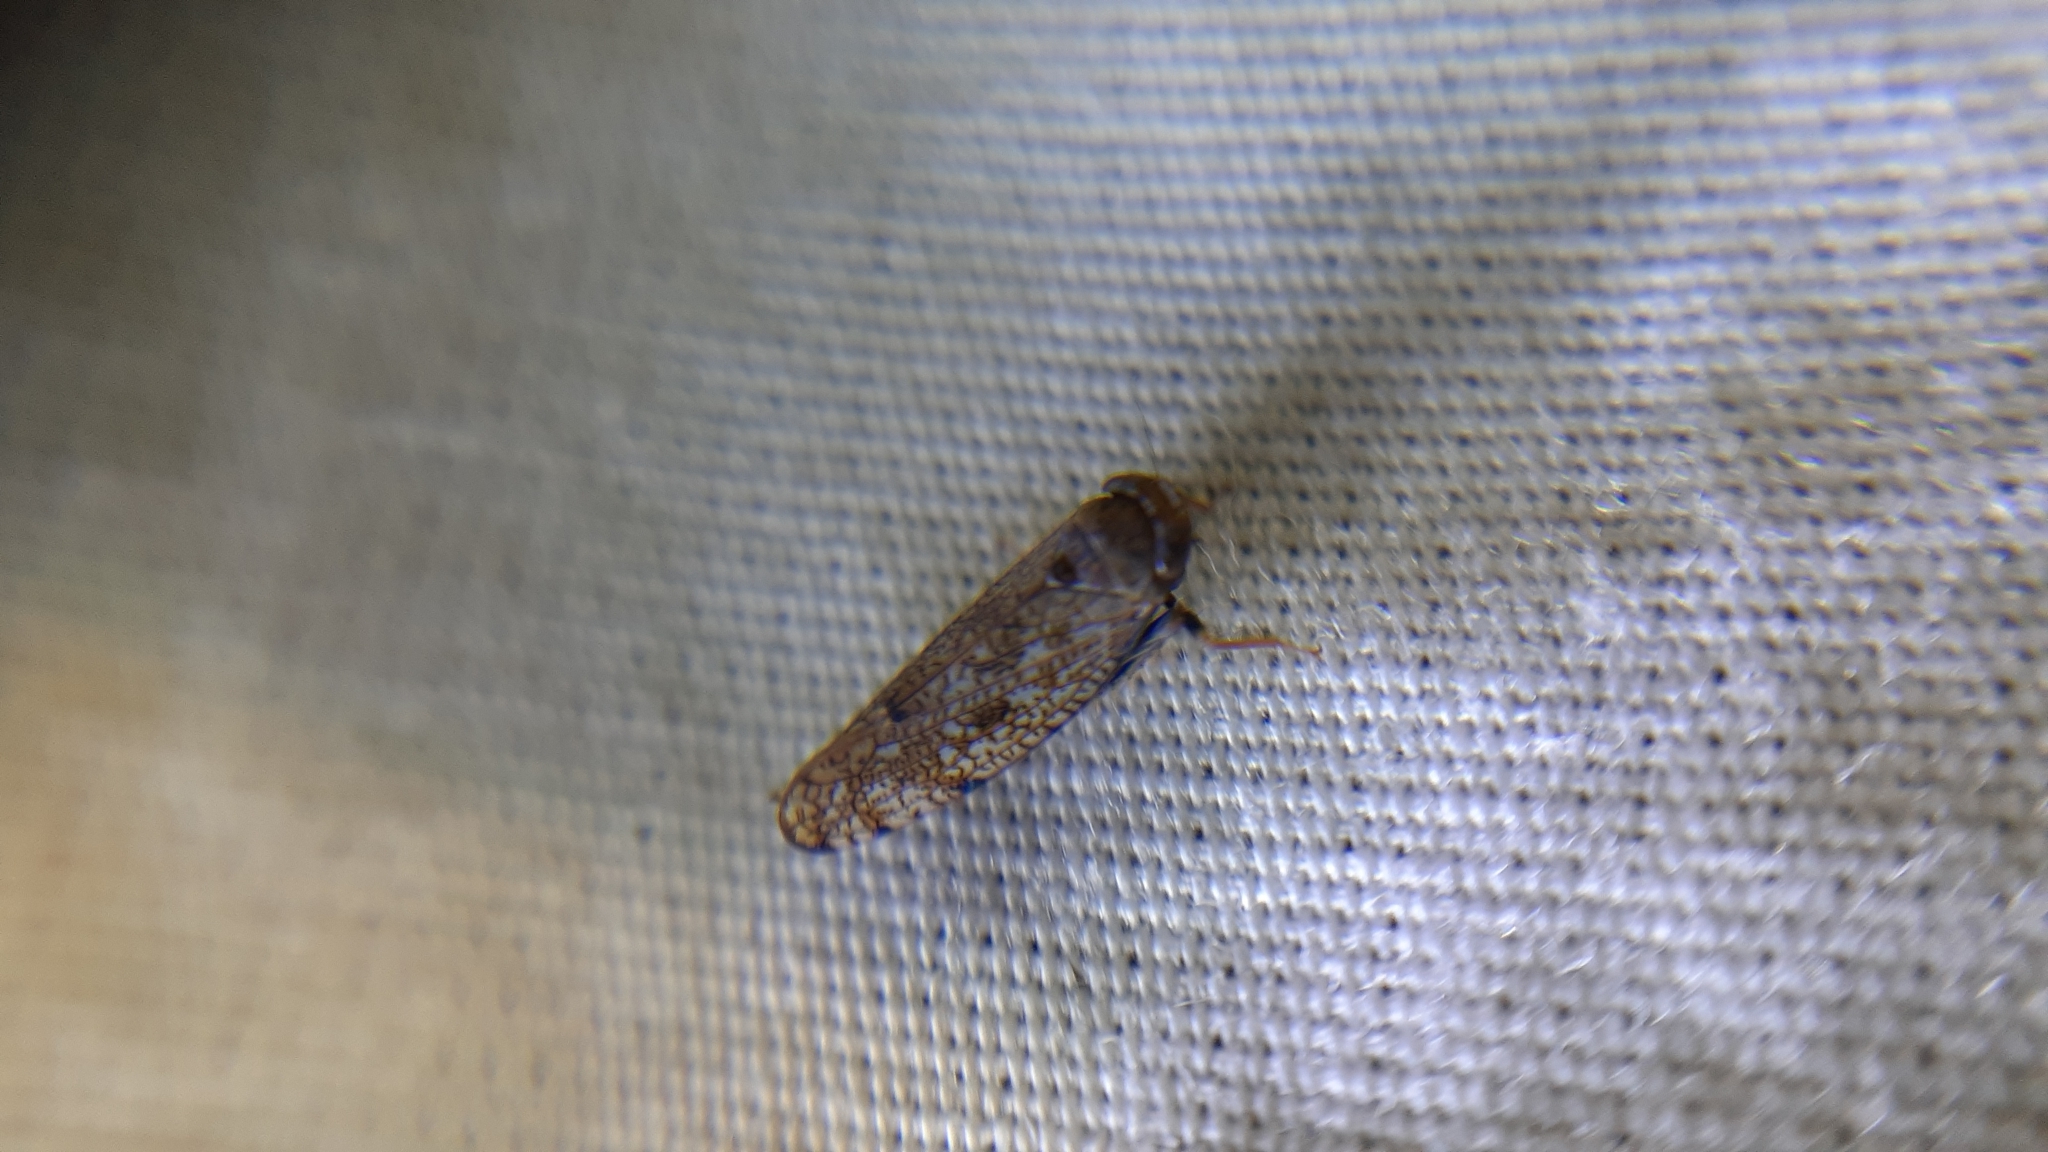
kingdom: Animalia
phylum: Arthropoda
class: Insecta
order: Hemiptera
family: Cicadellidae
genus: Orientus
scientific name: Orientus ishidae
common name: Japanese leafhopper
